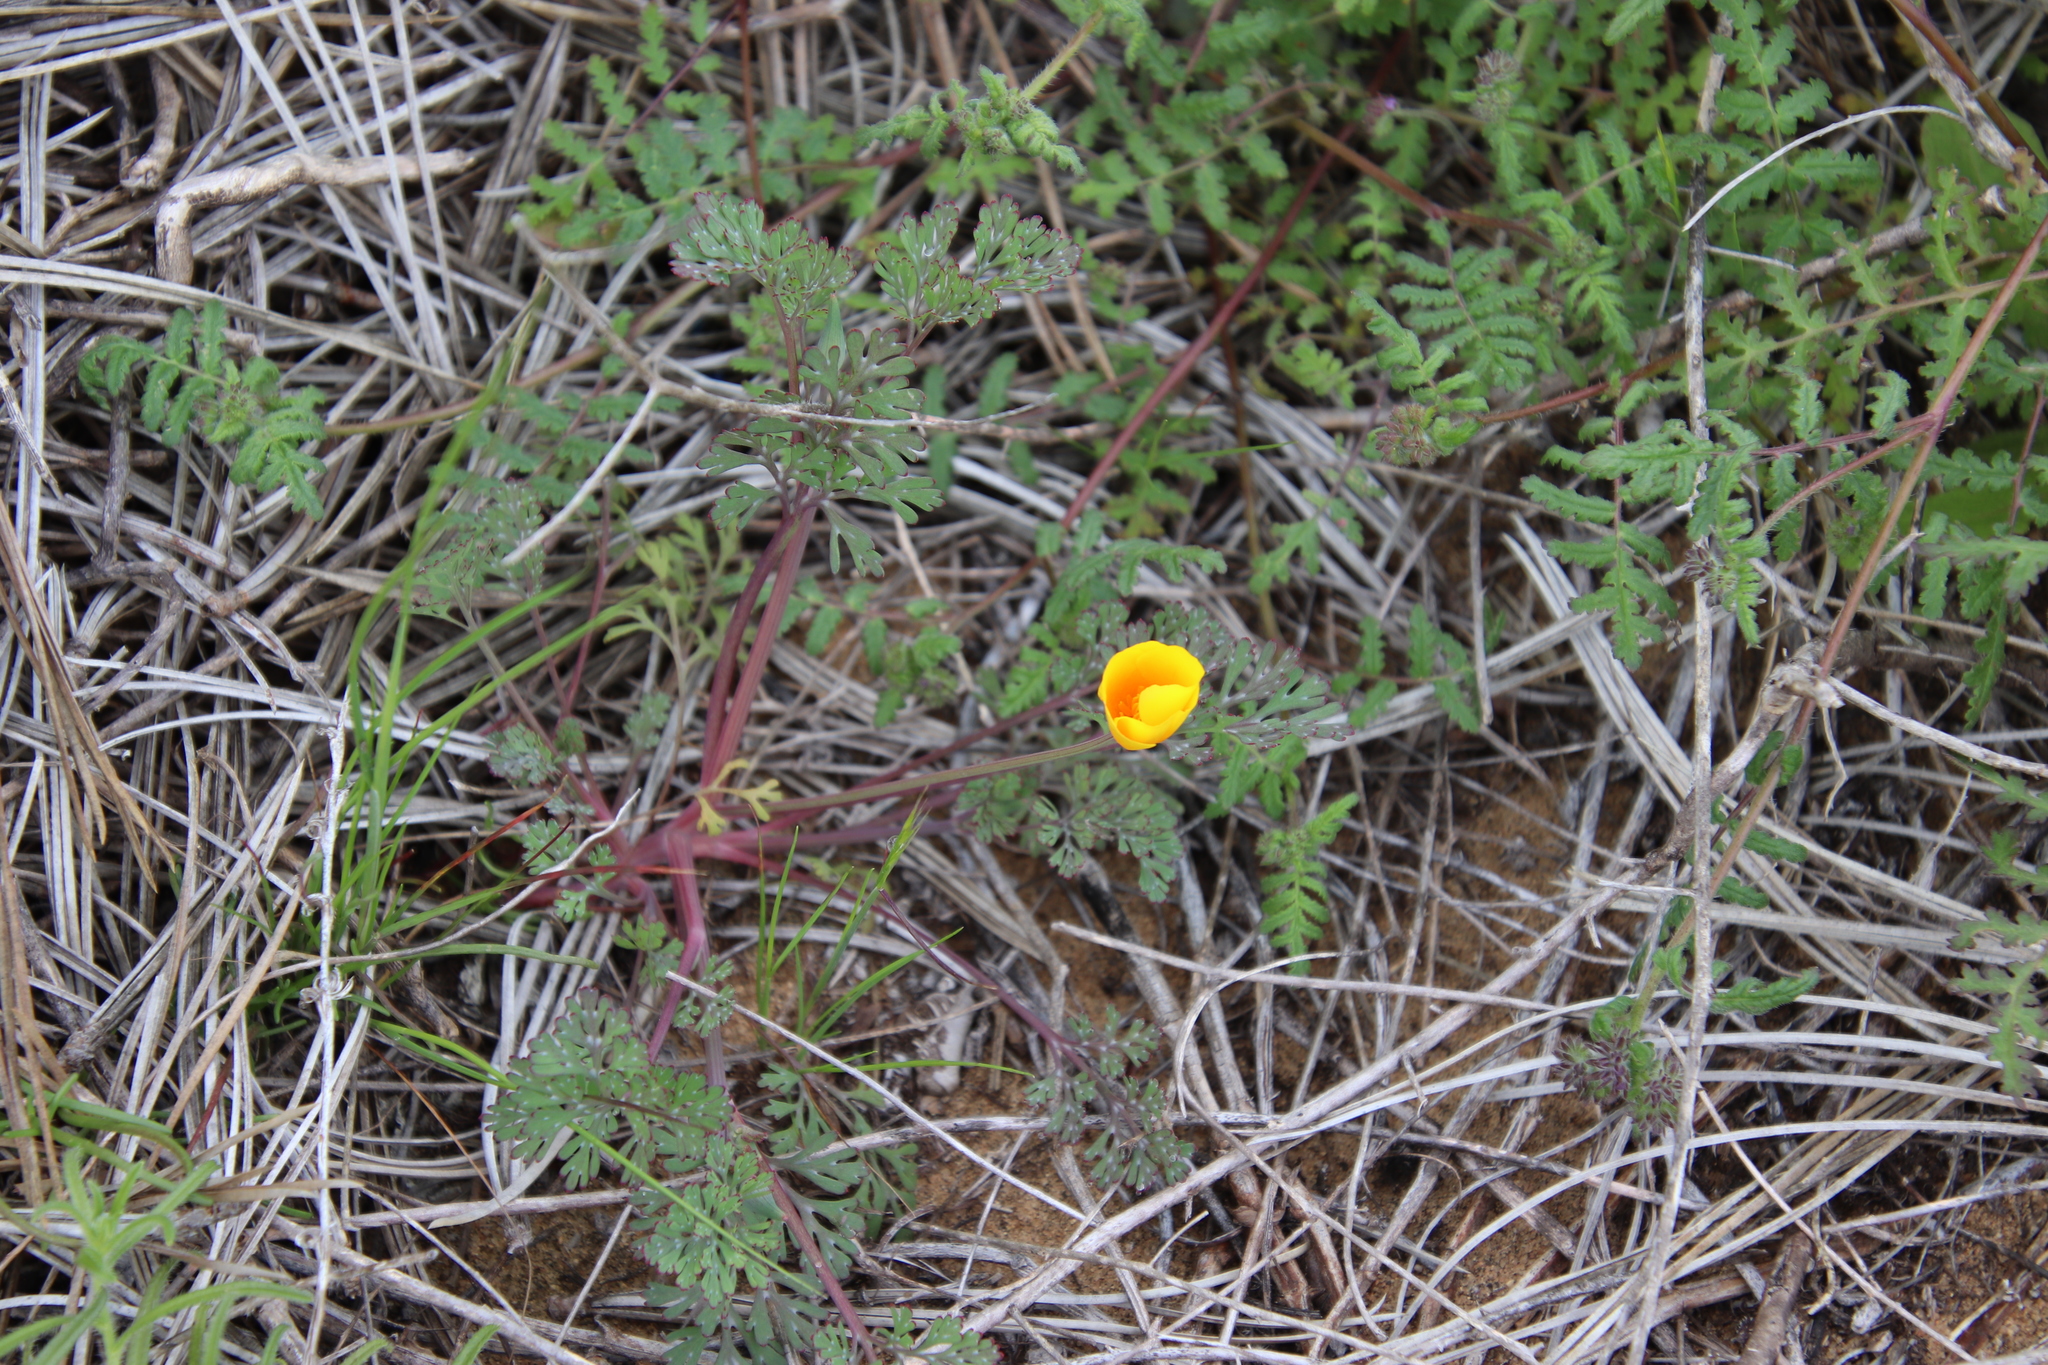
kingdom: Plantae
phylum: Tracheophyta
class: Magnoliopsida
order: Ranunculales
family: Papaveraceae
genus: Eschscholzia
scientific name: Eschscholzia californica
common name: California poppy
